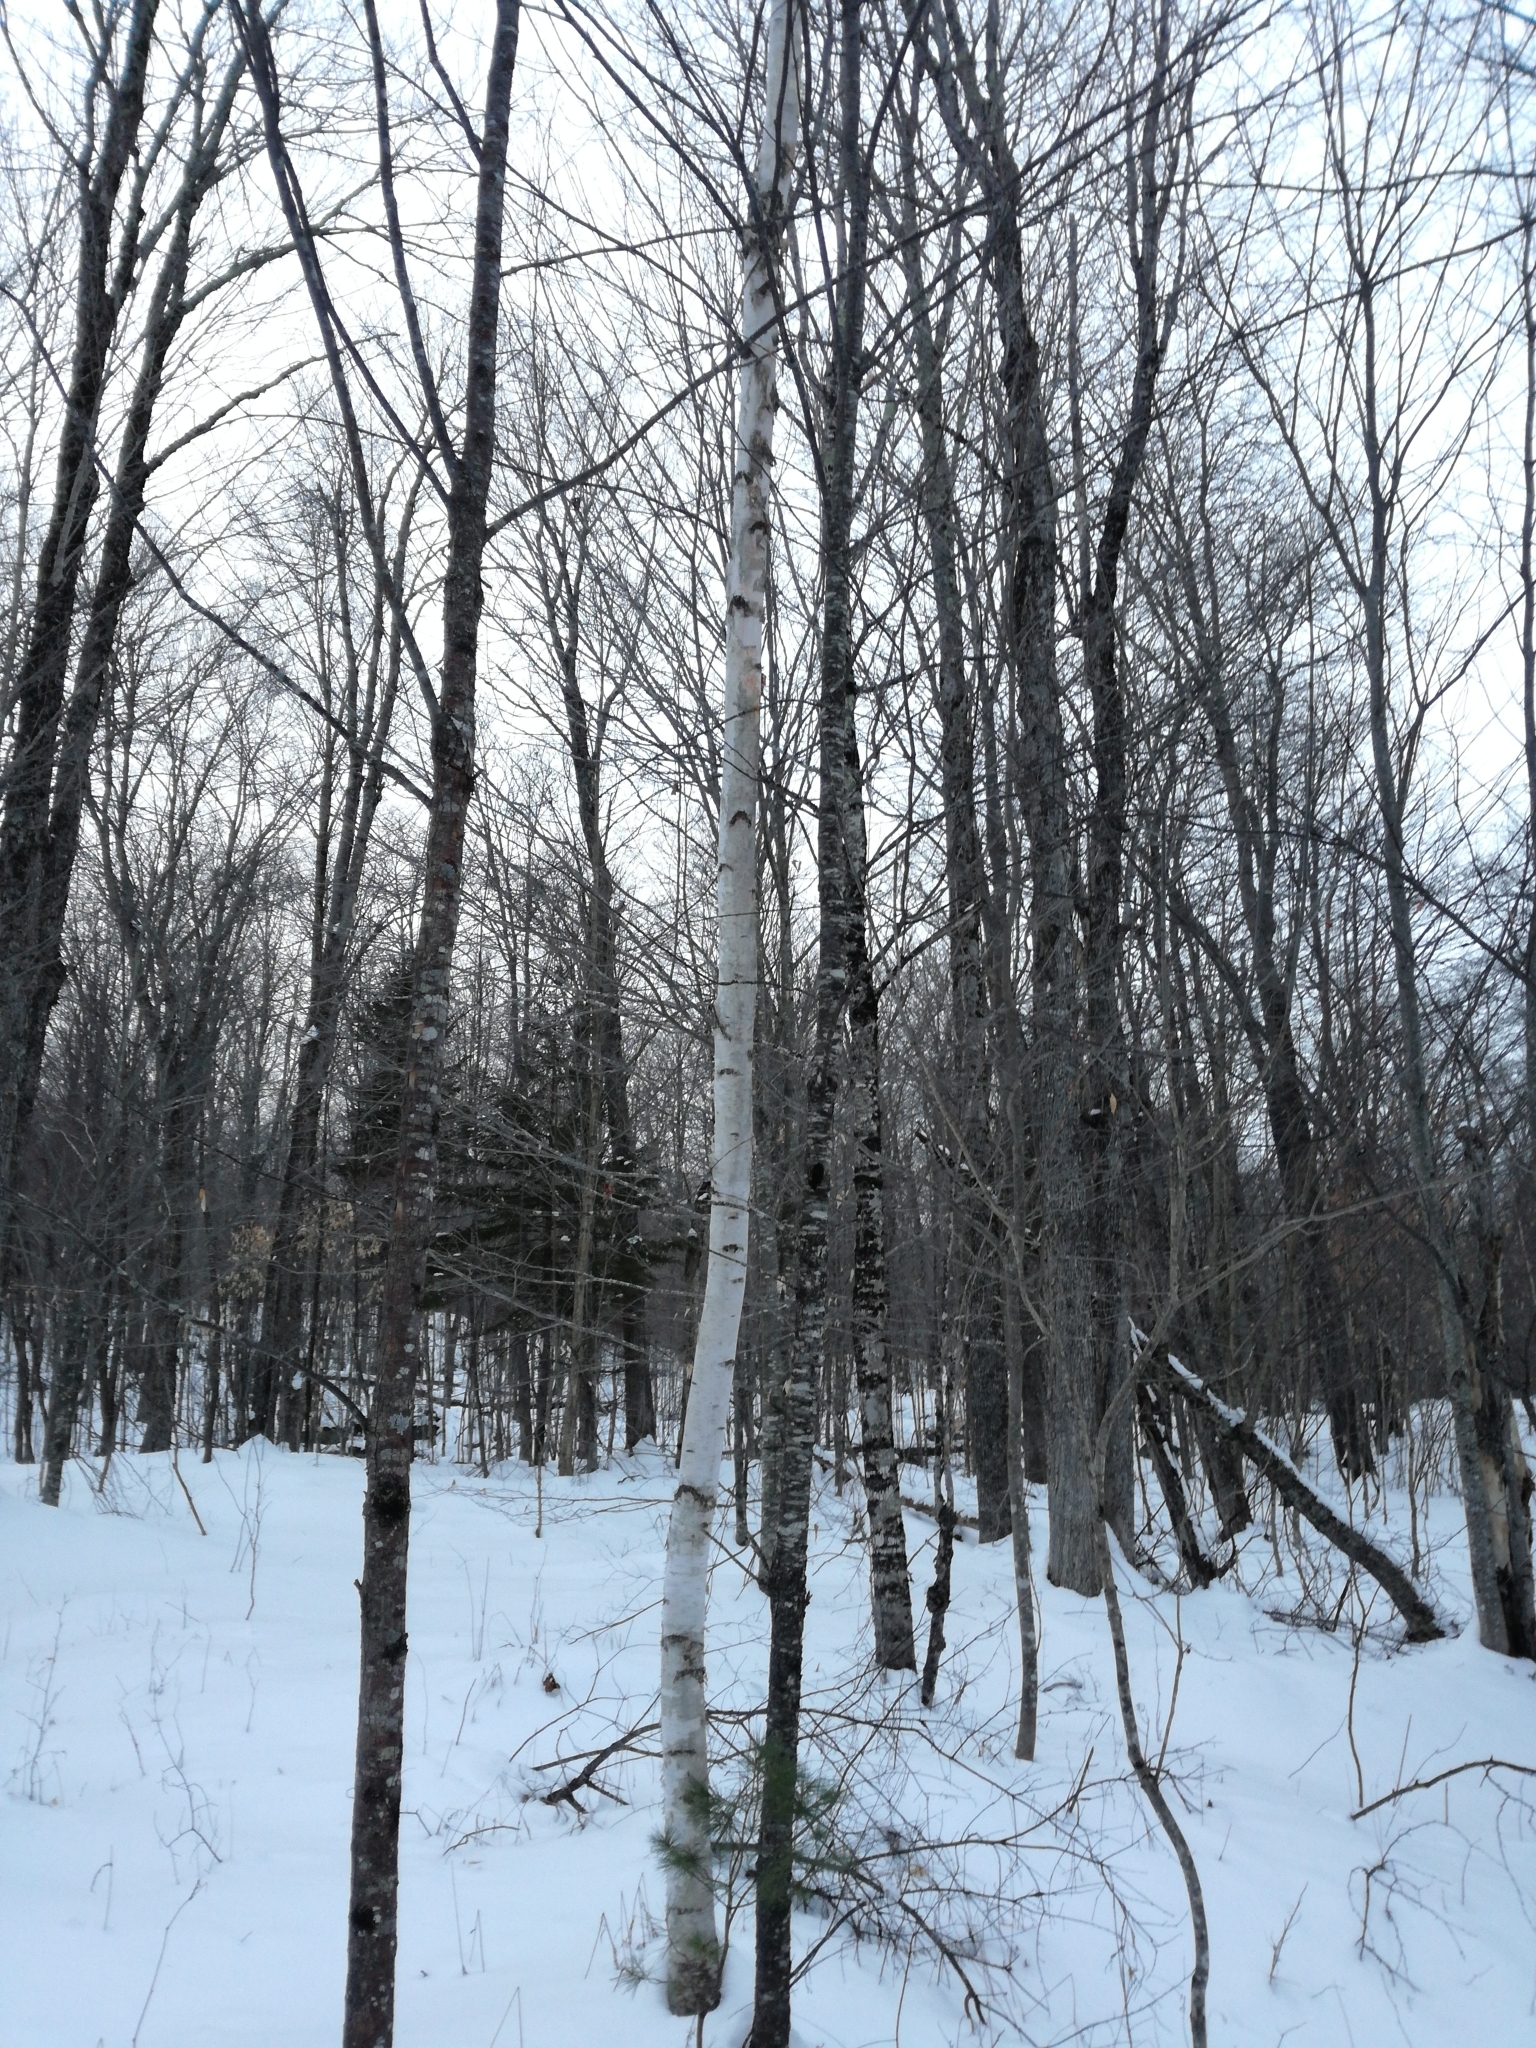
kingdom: Plantae
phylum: Tracheophyta
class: Magnoliopsida
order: Fagales
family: Betulaceae
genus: Betula
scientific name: Betula papyrifera
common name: Paper birch
